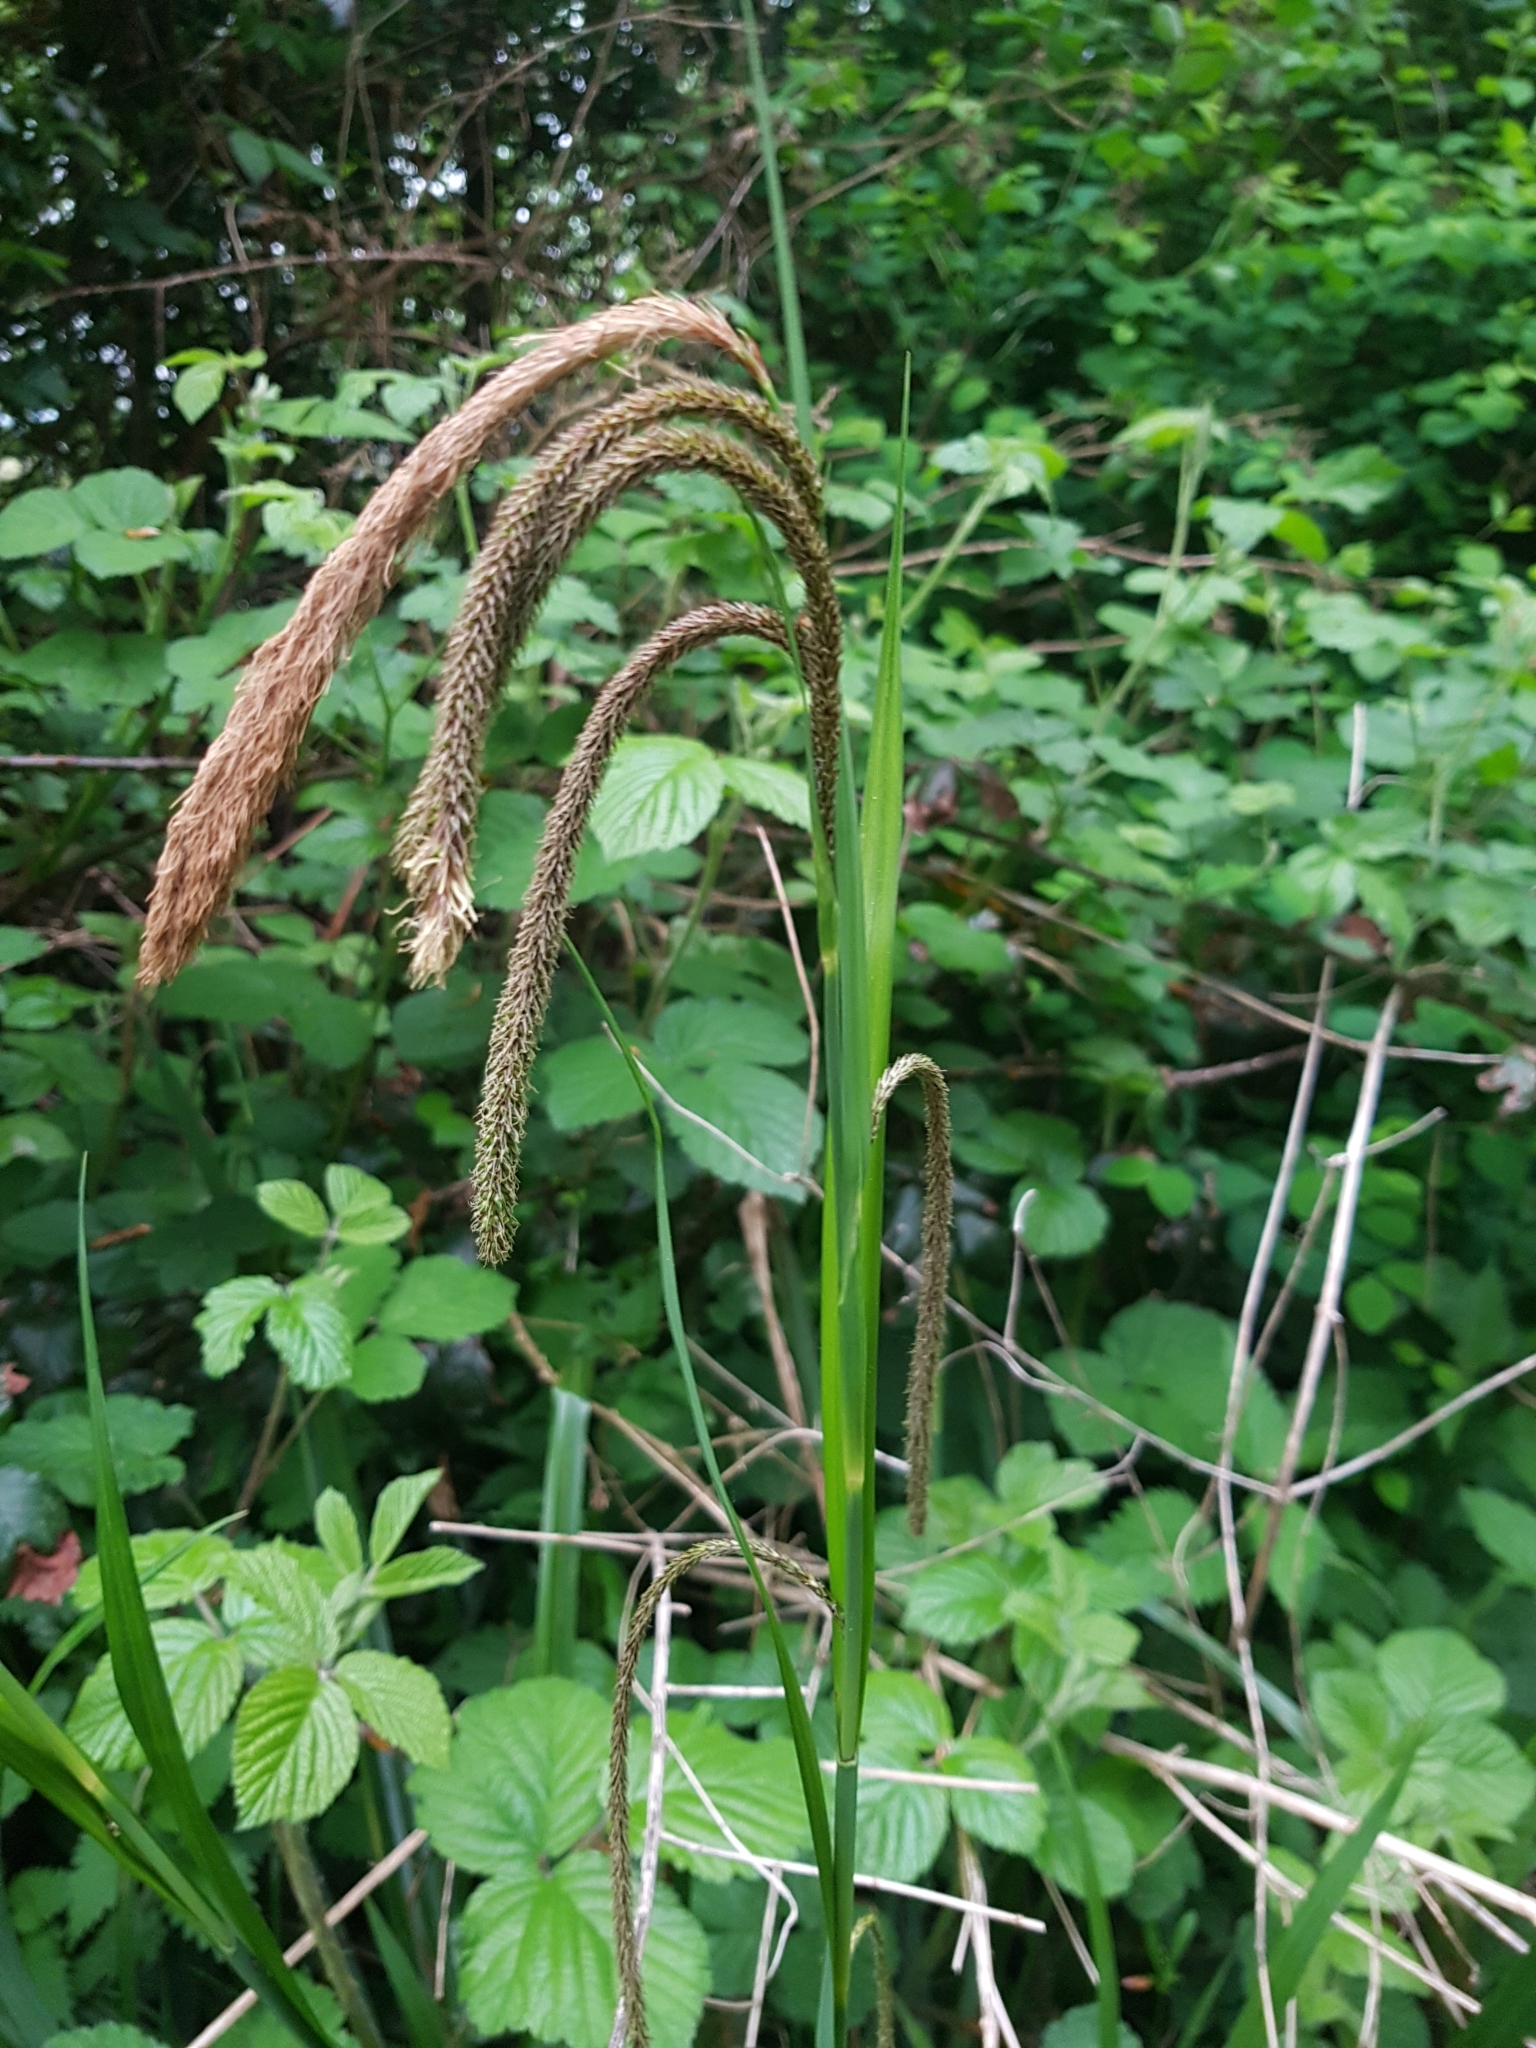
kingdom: Plantae
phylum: Tracheophyta
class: Liliopsida
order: Poales
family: Cyperaceae
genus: Carex
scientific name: Carex pendula
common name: Pendulous sedge
